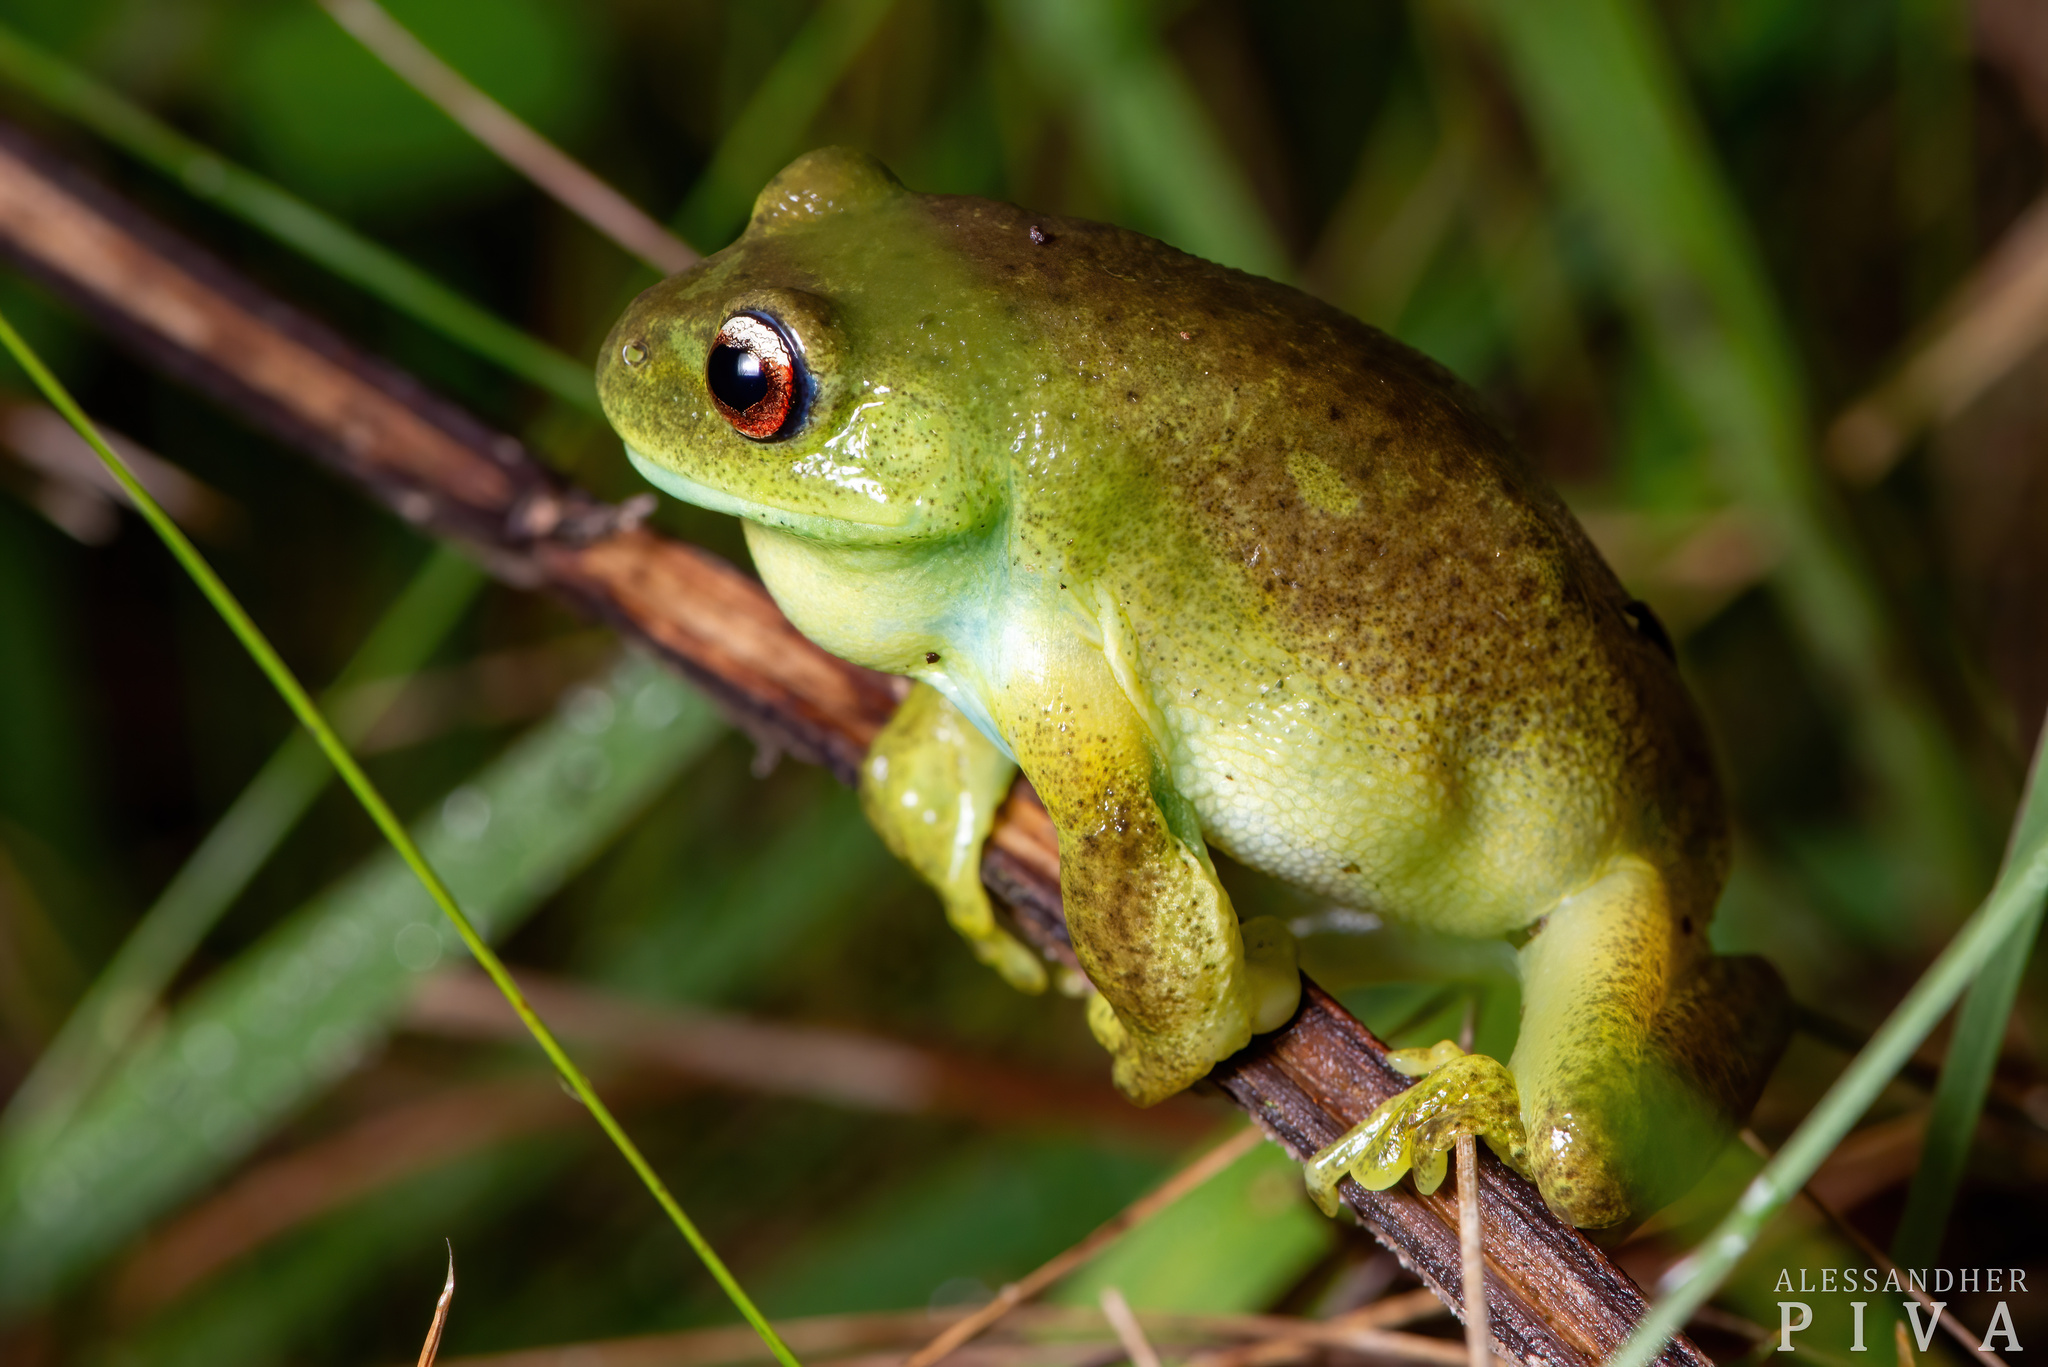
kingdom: Animalia
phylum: Chordata
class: Amphibia
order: Anura
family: Hylidae
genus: Aplastodiscus
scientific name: Aplastodiscus perviridis
